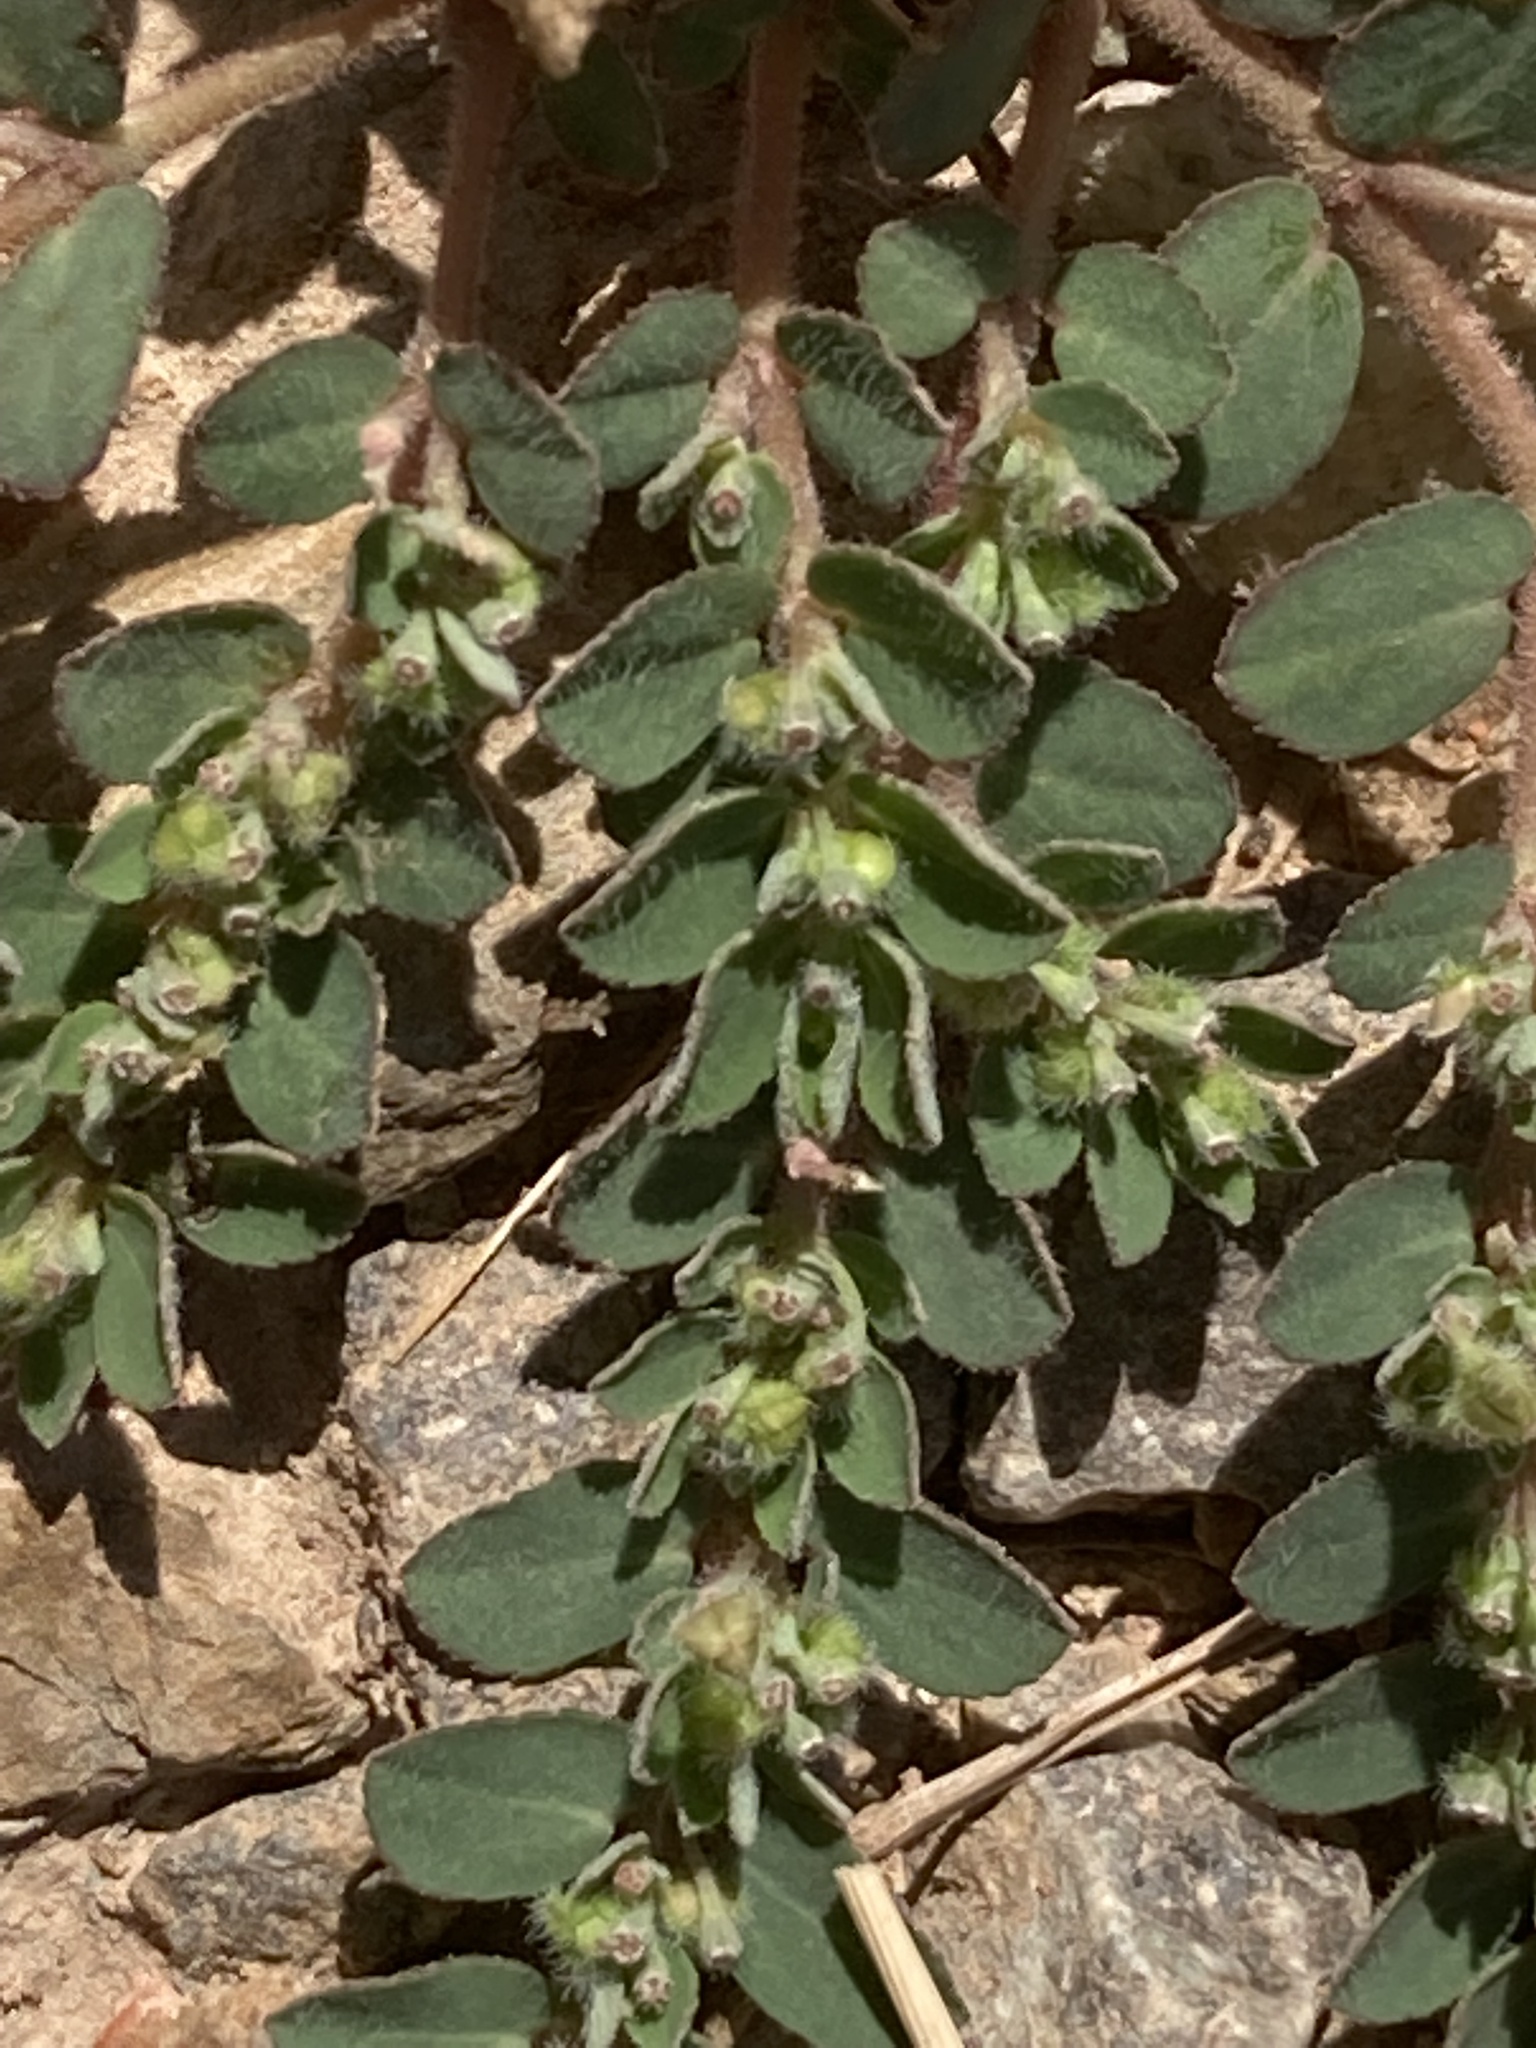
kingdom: Plantae
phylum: Tracheophyta
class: Magnoliopsida
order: Malpighiales
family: Euphorbiaceae
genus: Euphorbia
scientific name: Euphorbia prostrata
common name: Prostrate sandmat
